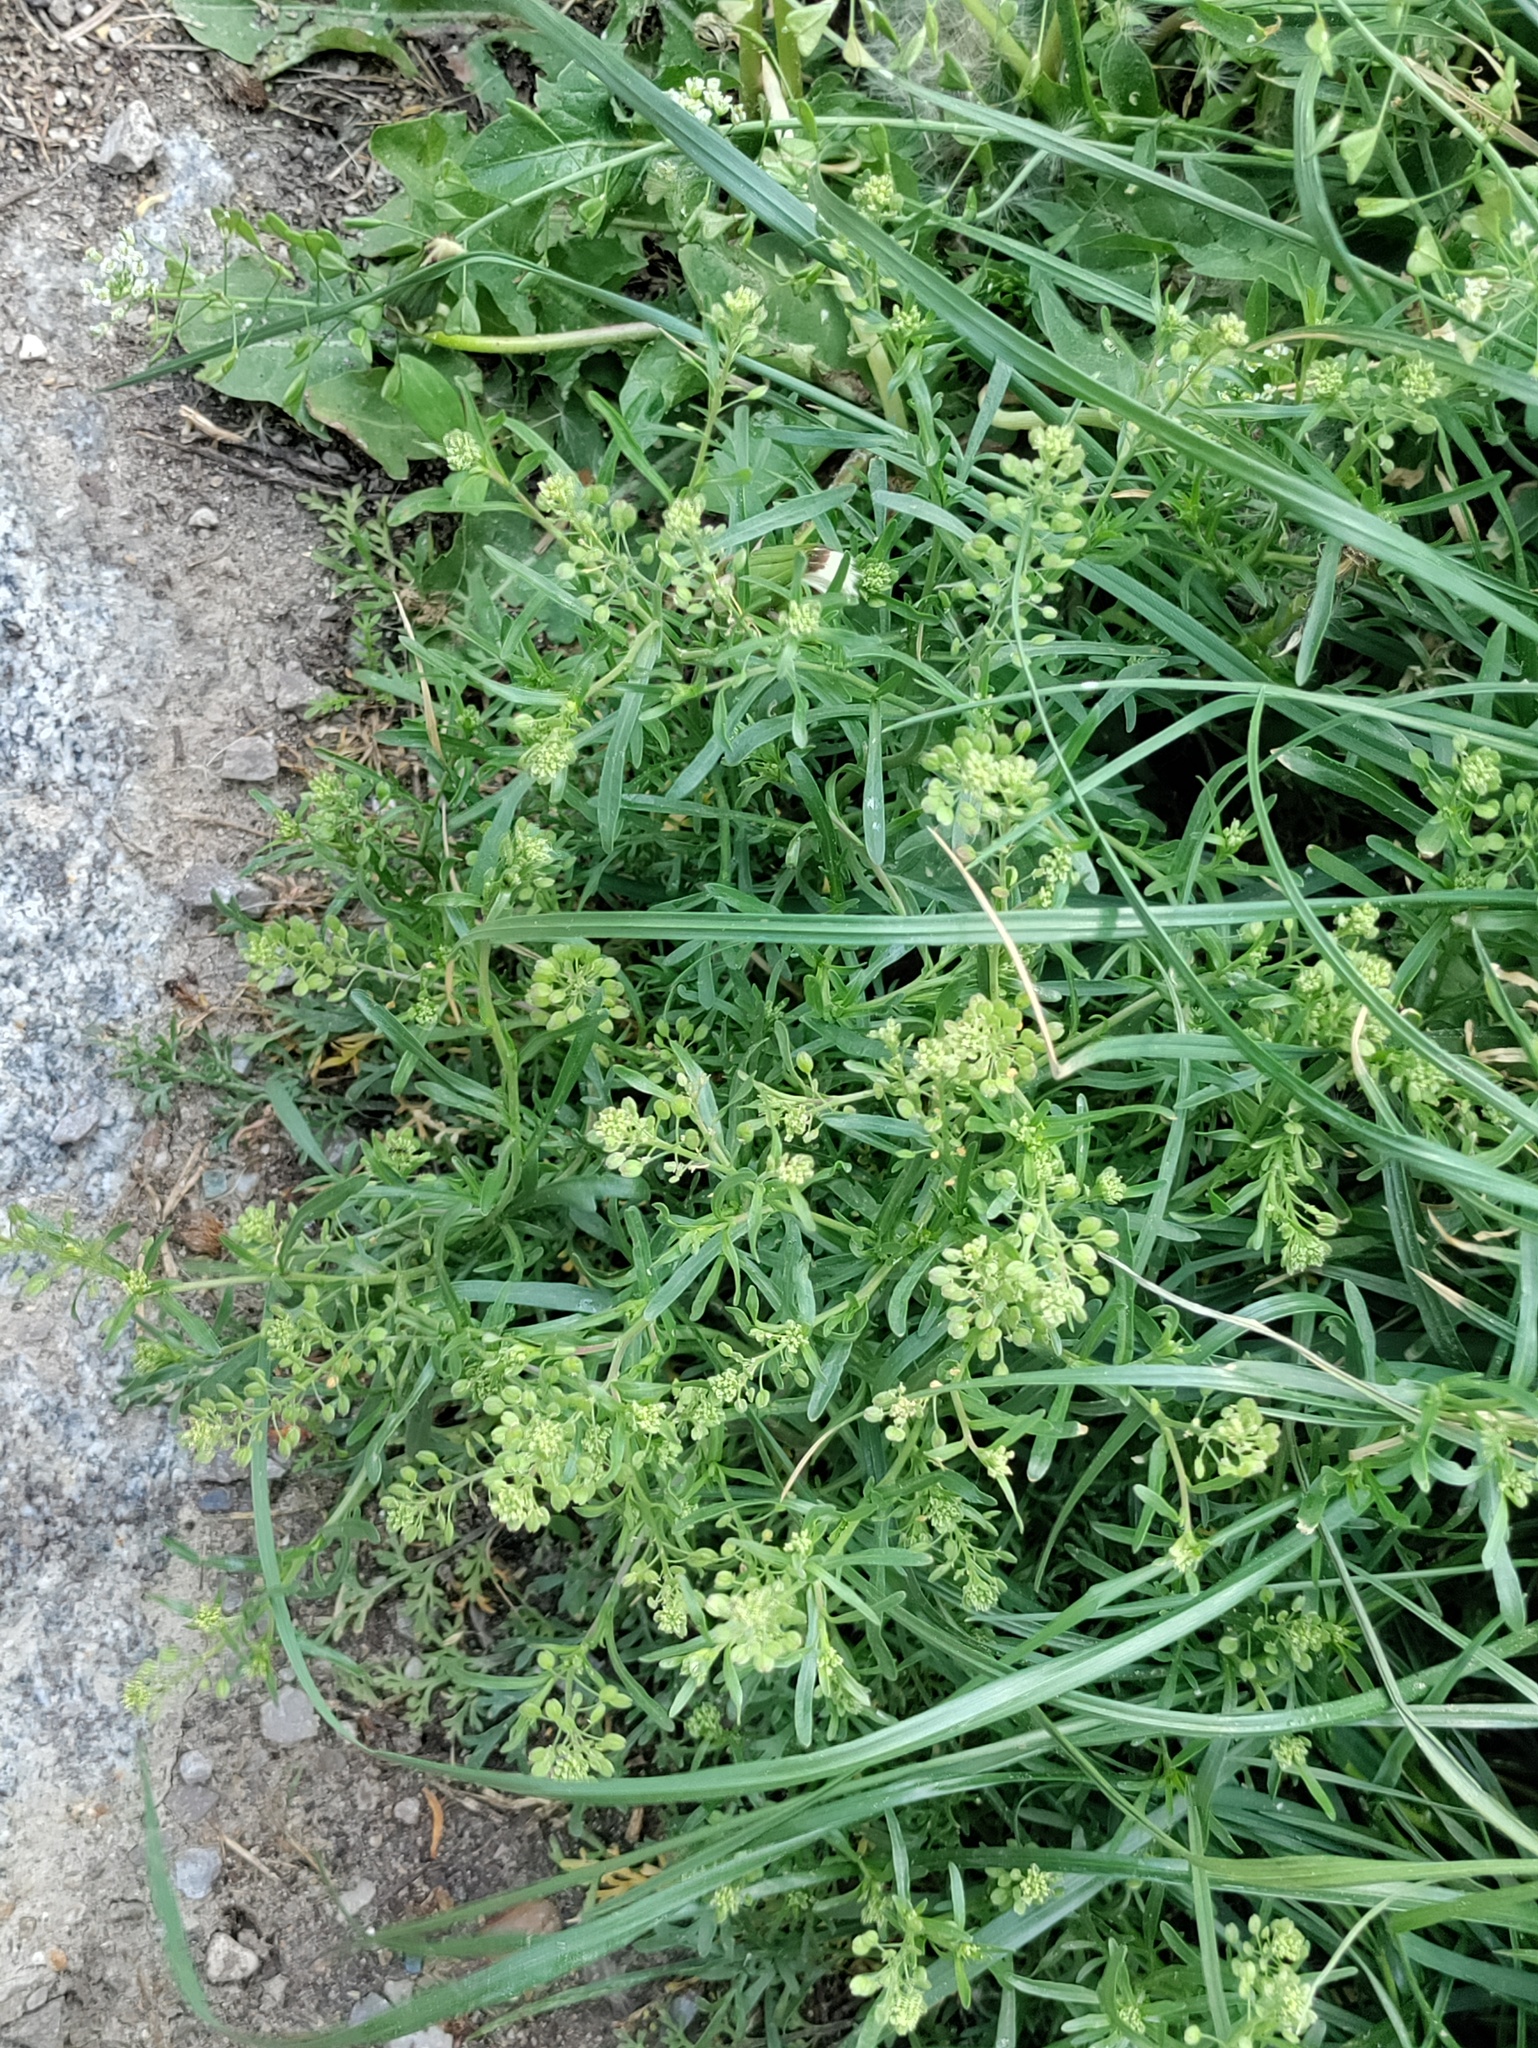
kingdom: Plantae
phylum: Tracheophyta
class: Magnoliopsida
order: Brassicales
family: Brassicaceae
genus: Lepidium
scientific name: Lepidium ruderale
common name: Narrow-leaved pepperwort
